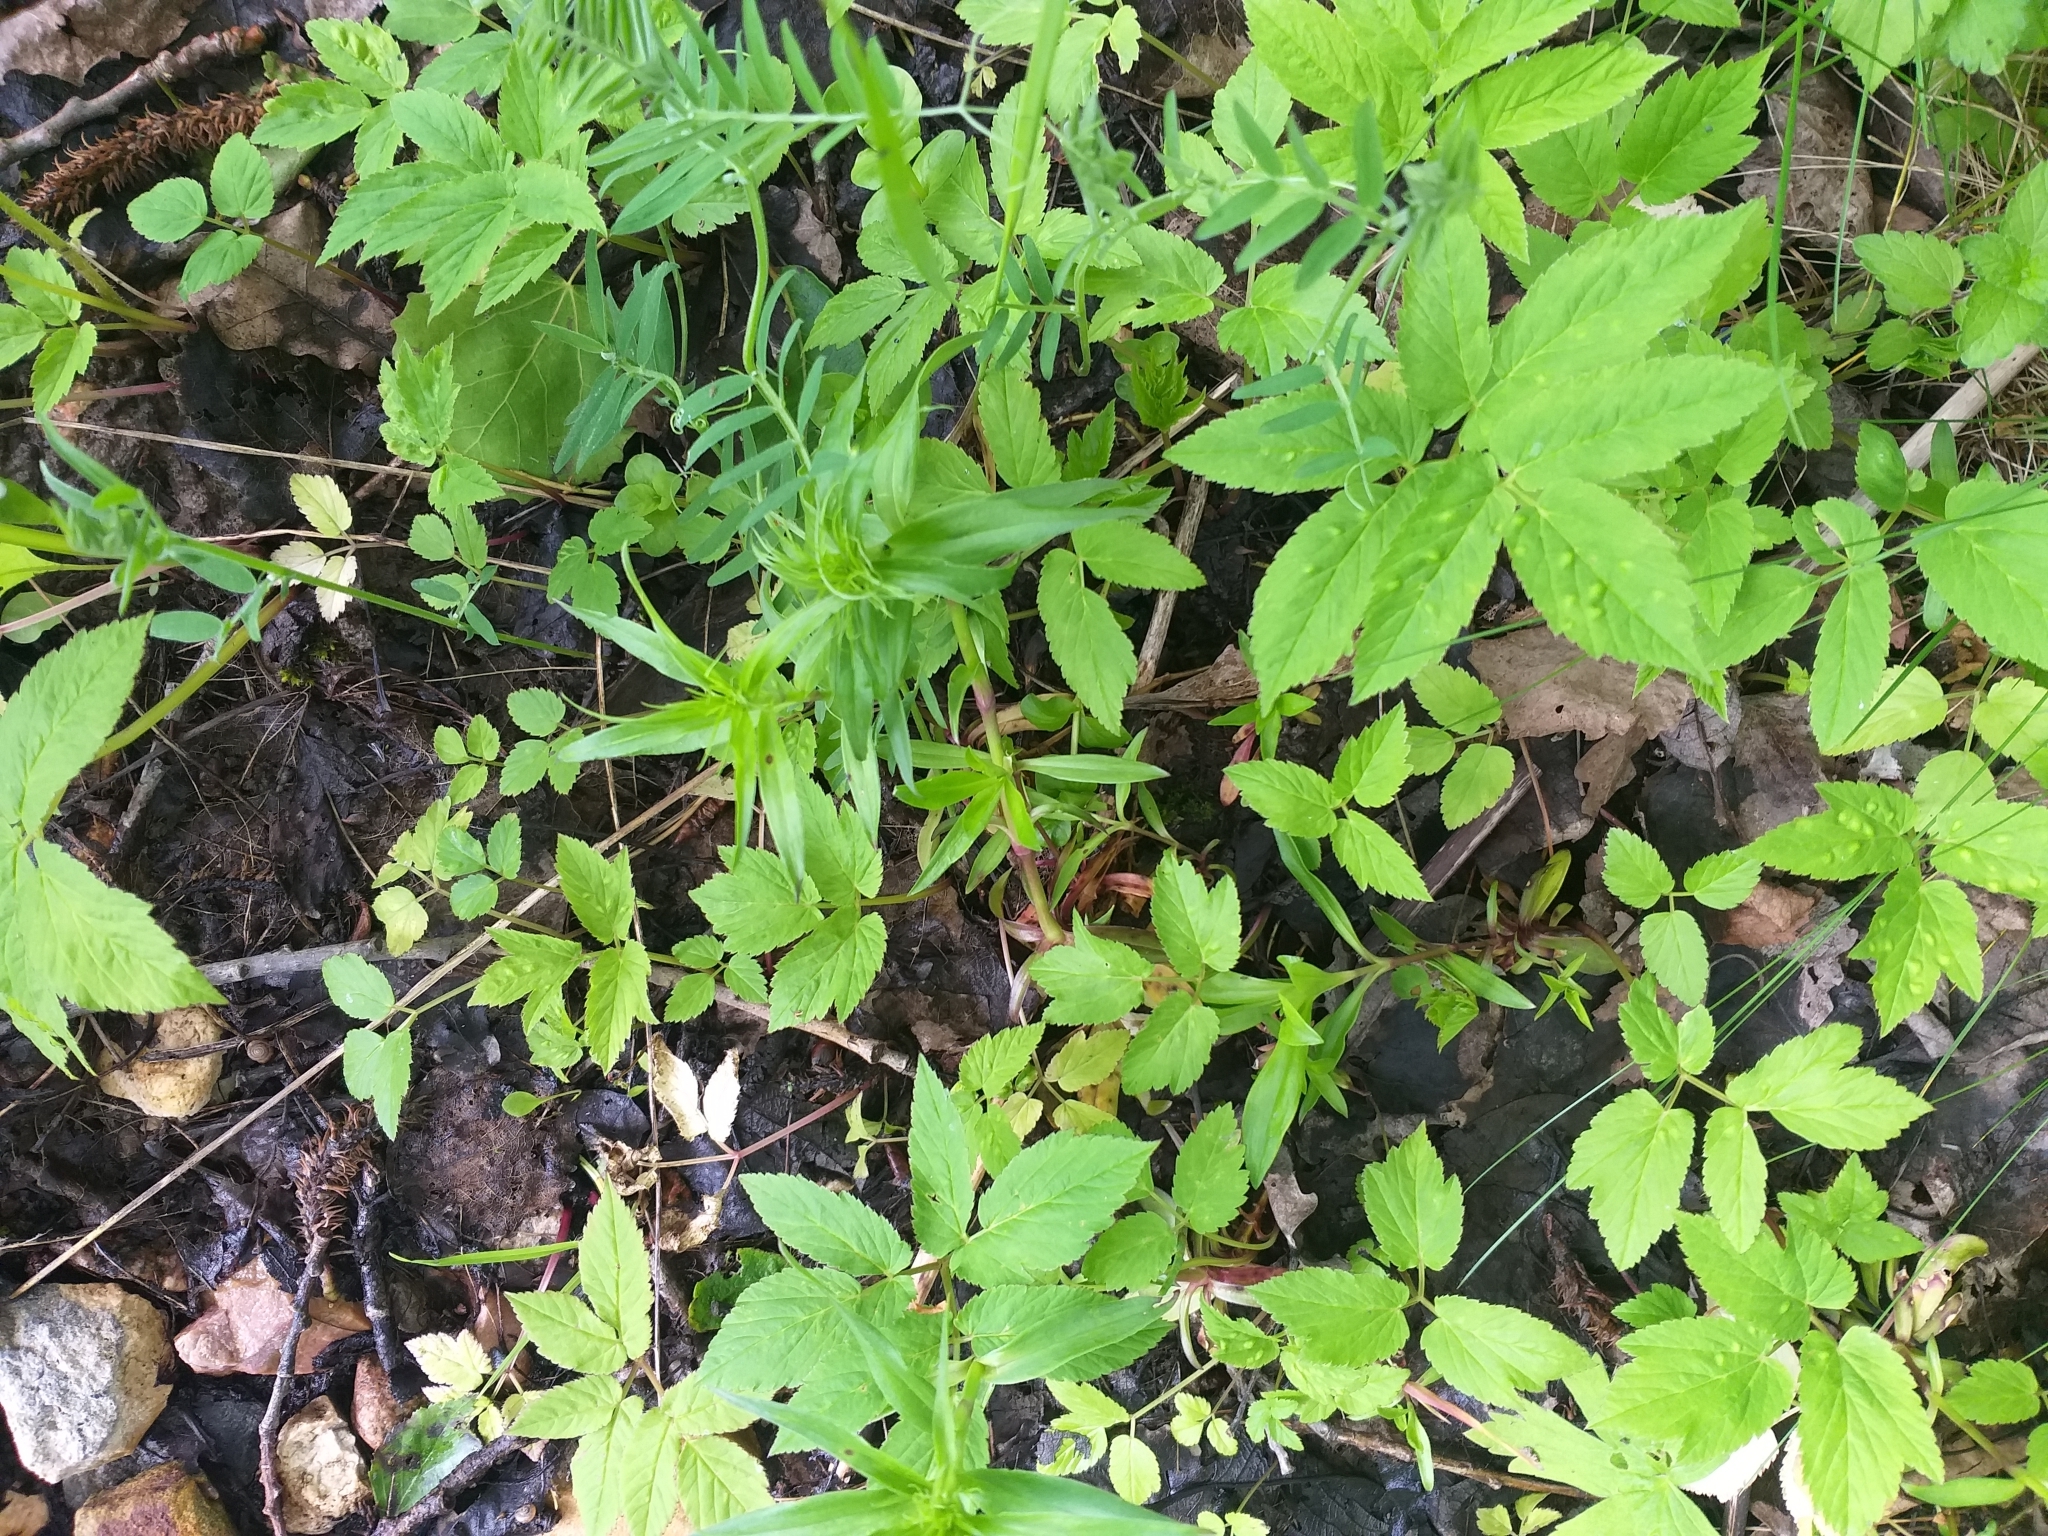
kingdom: Plantae
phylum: Tracheophyta
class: Magnoliopsida
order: Caryophyllales
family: Caryophyllaceae
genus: Dianthus
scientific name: Dianthus barbatus
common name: Sweet-william
